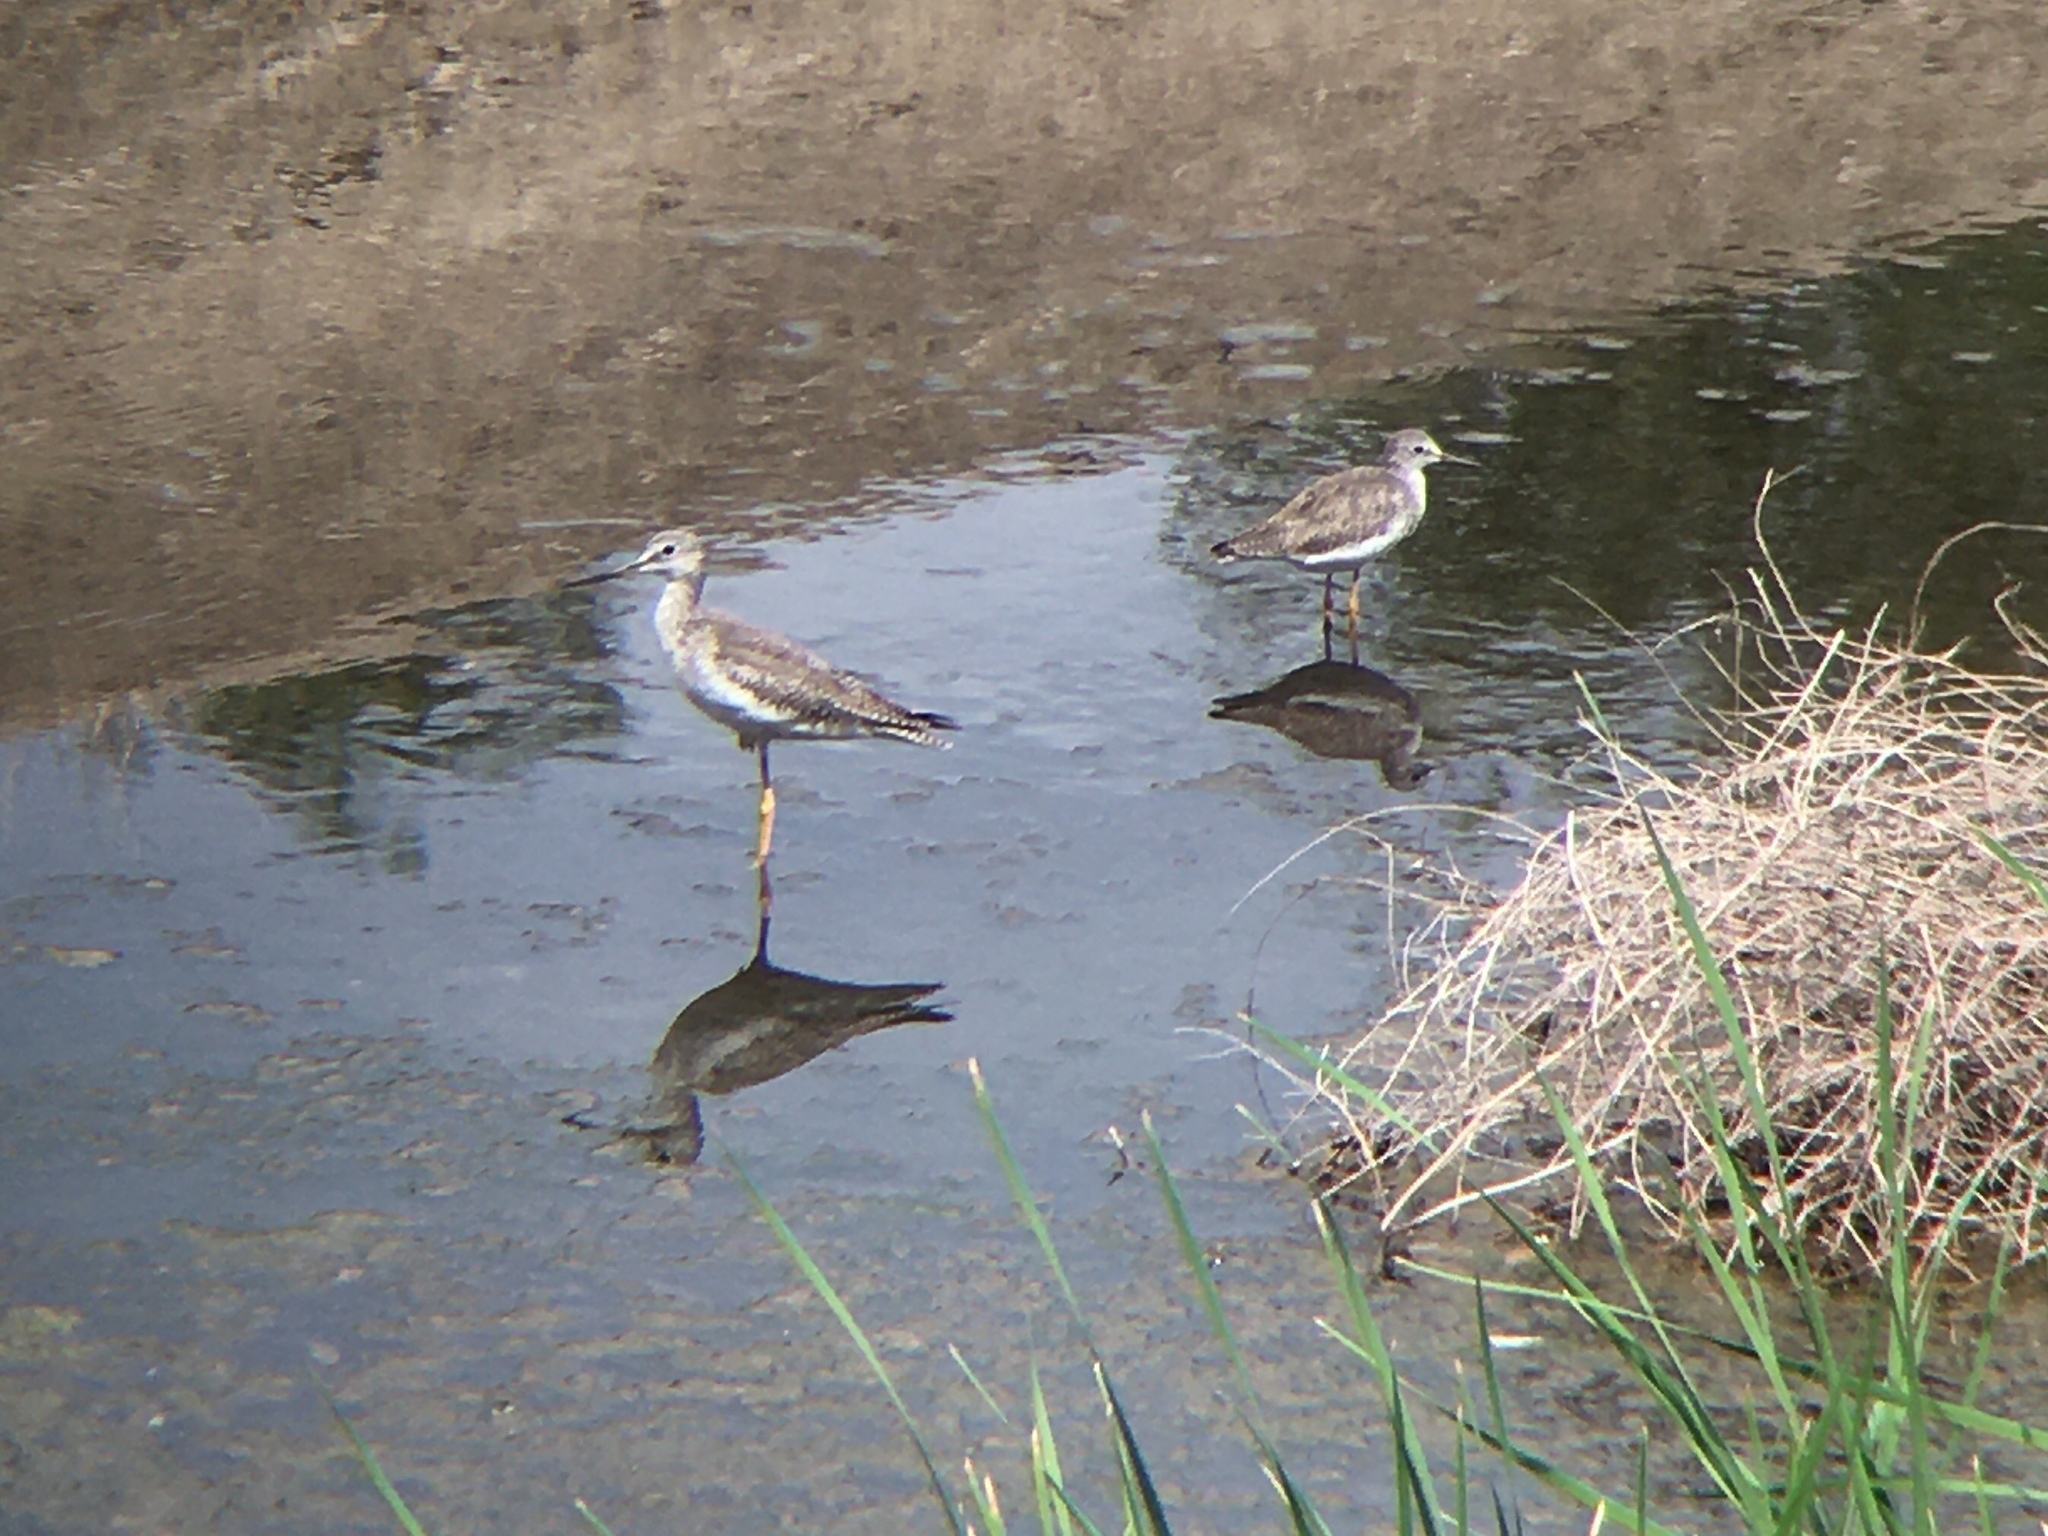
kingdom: Animalia
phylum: Chordata
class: Aves
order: Charadriiformes
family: Scolopacidae
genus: Tringa
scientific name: Tringa melanoleuca
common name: Greater yellowlegs
